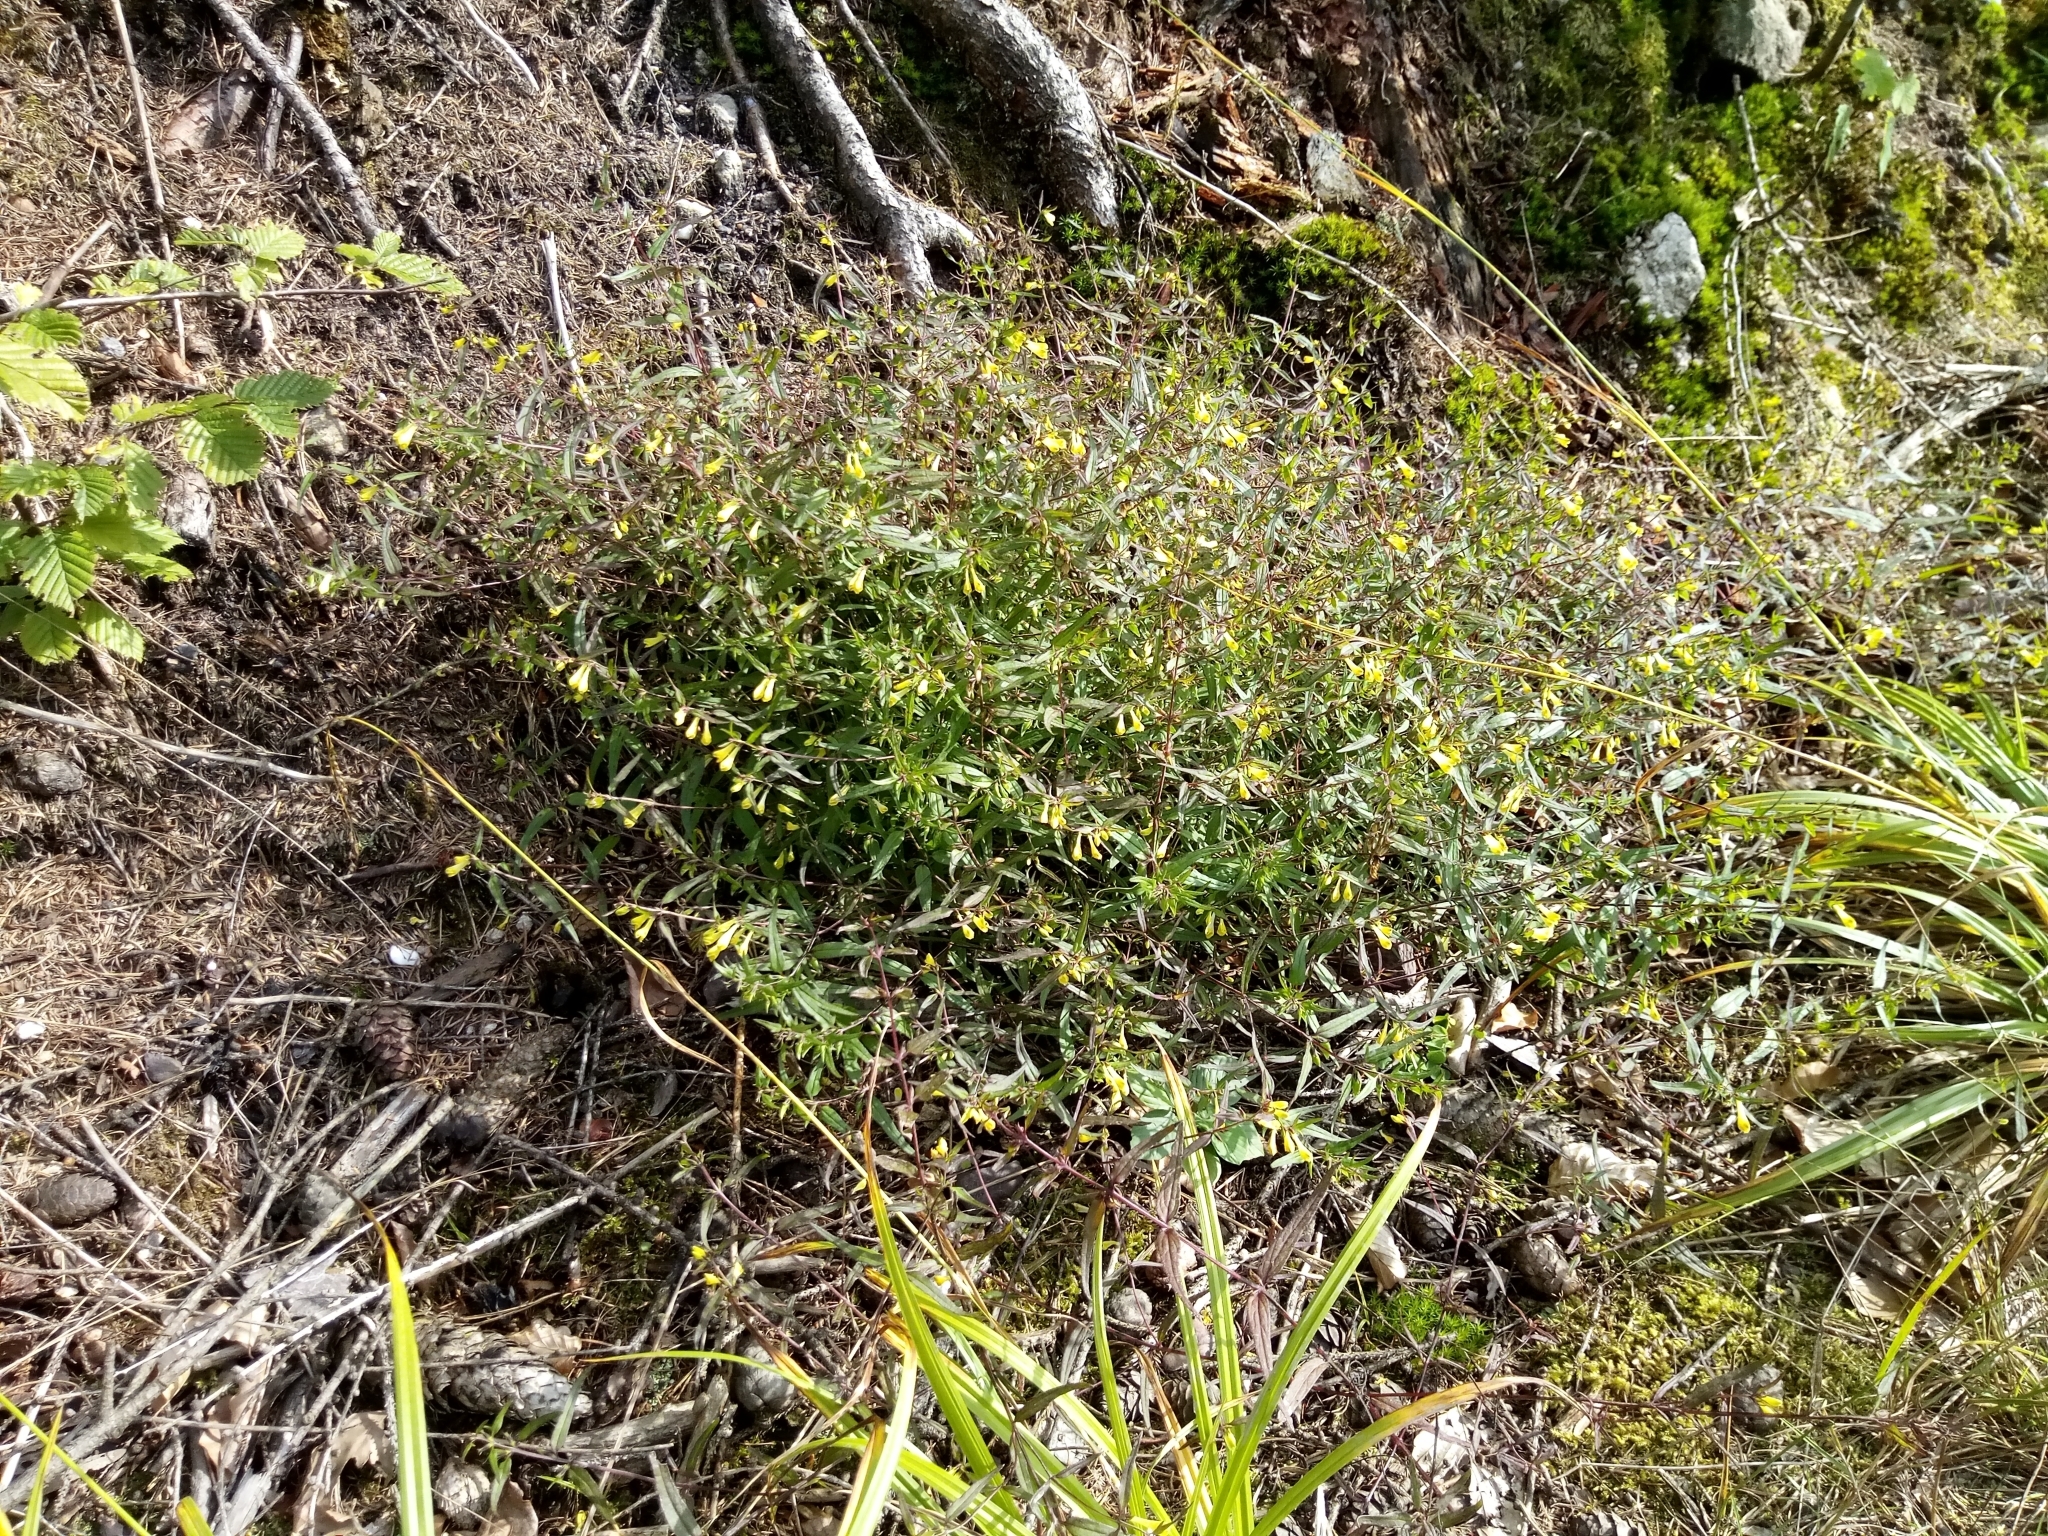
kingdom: Plantae
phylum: Tracheophyta
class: Magnoliopsida
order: Lamiales
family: Orobanchaceae
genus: Melampyrum
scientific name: Melampyrum pratense
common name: Common cow-wheat
